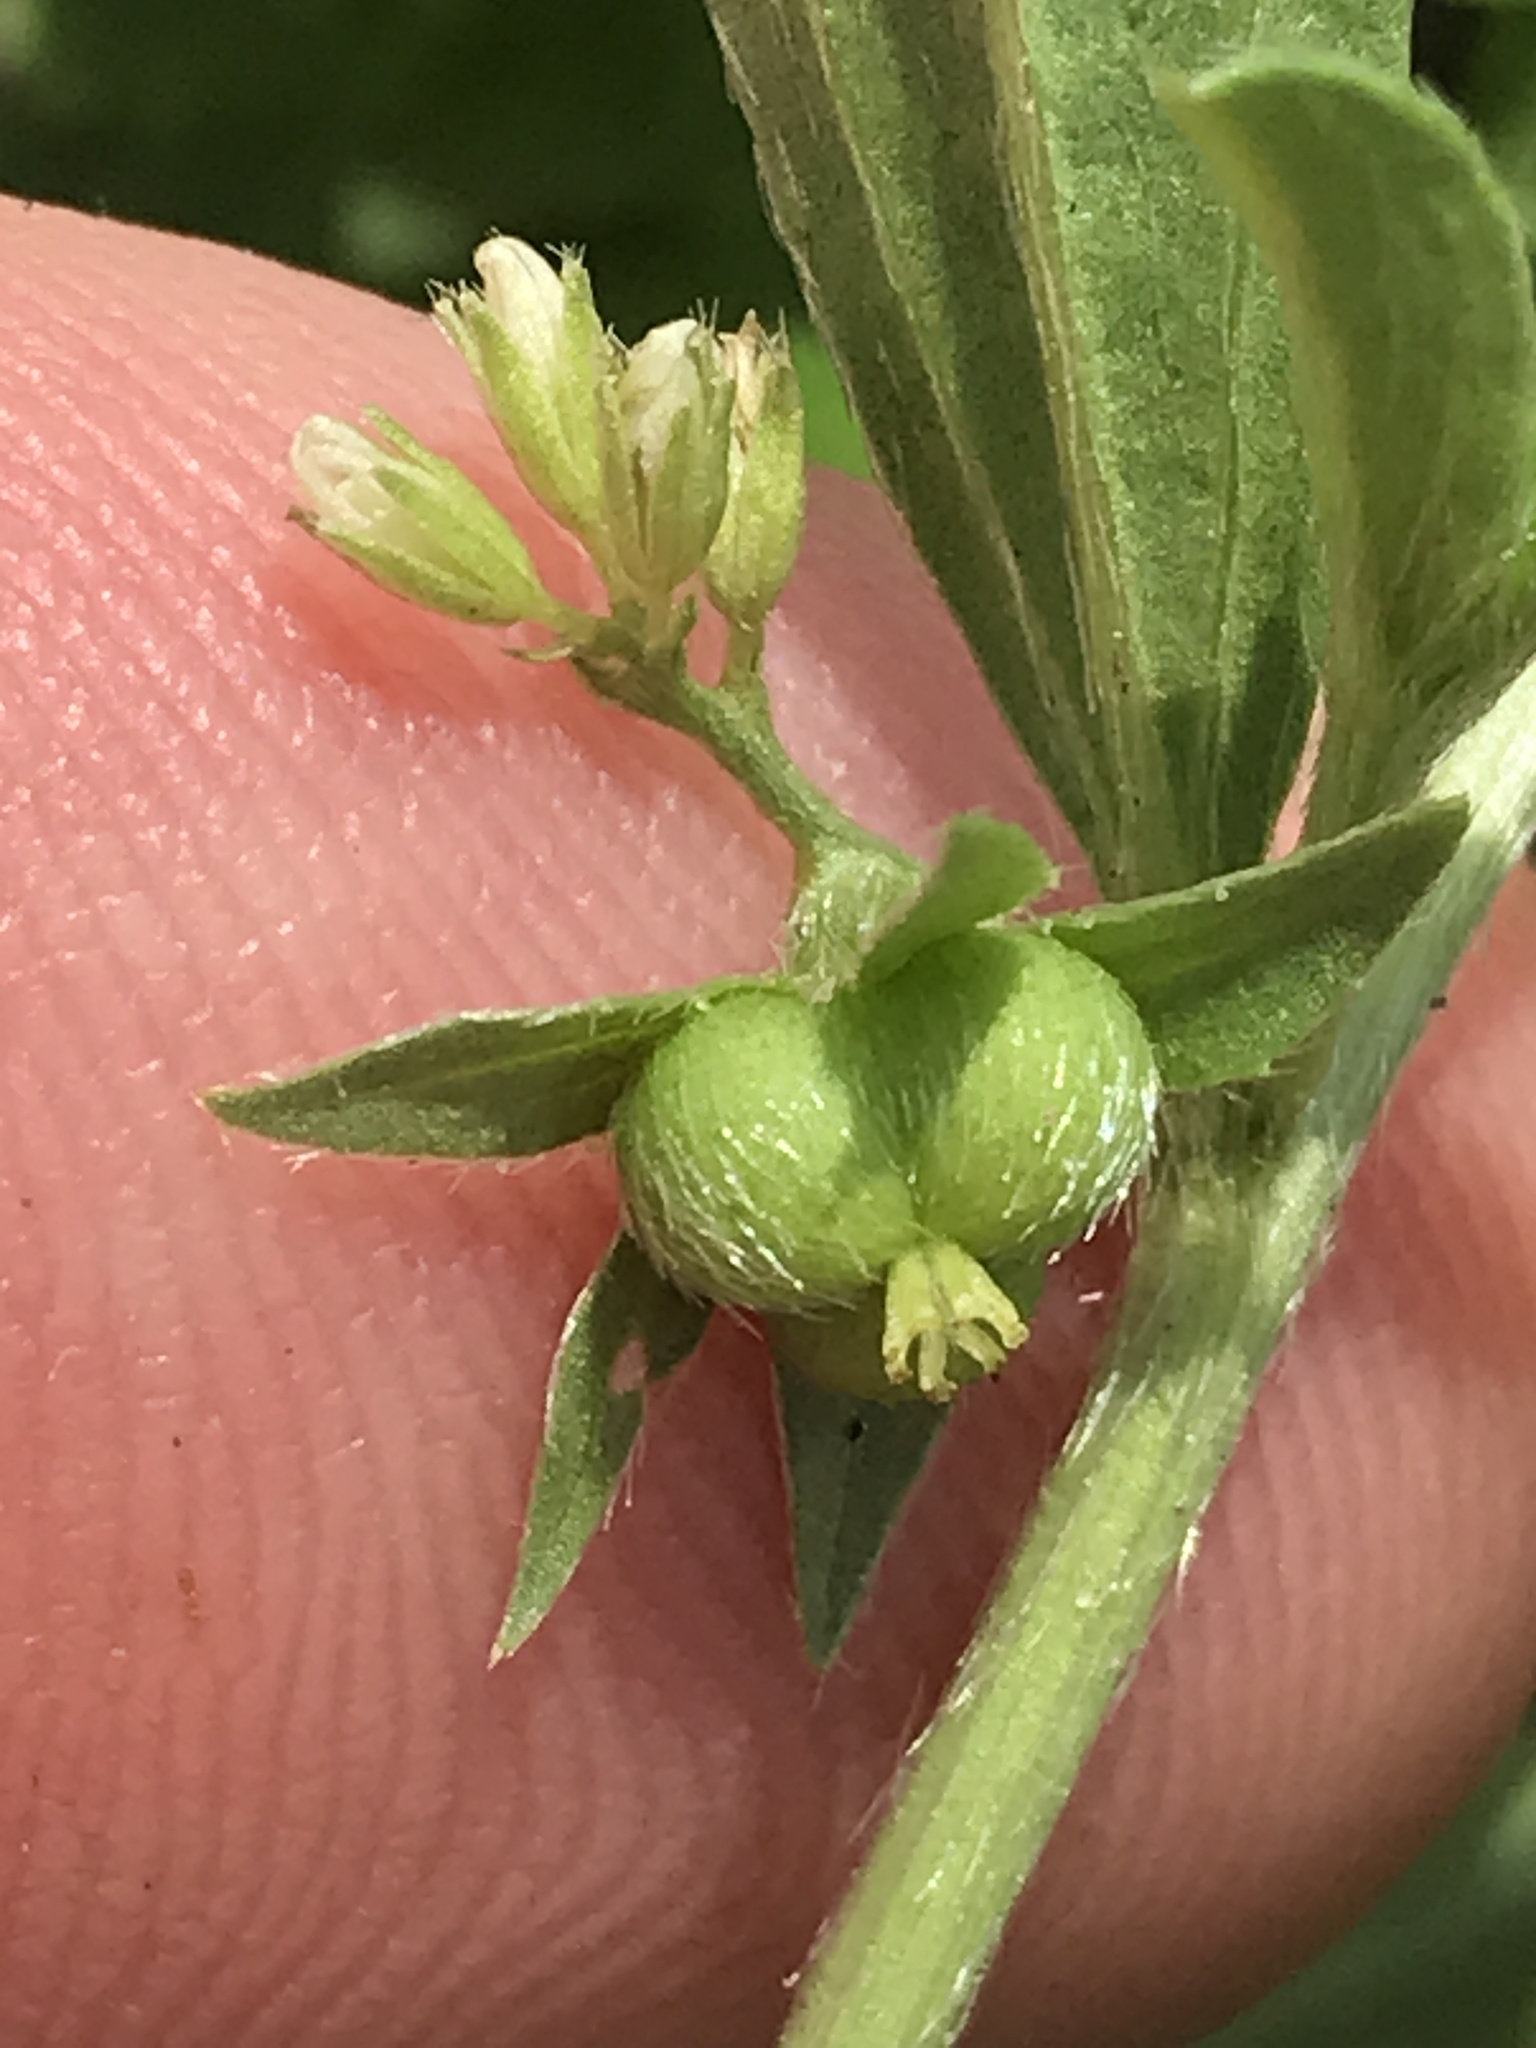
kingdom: Plantae
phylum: Tracheophyta
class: Magnoliopsida
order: Malpighiales
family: Euphorbiaceae
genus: Ditaxis
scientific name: Ditaxis humilis
